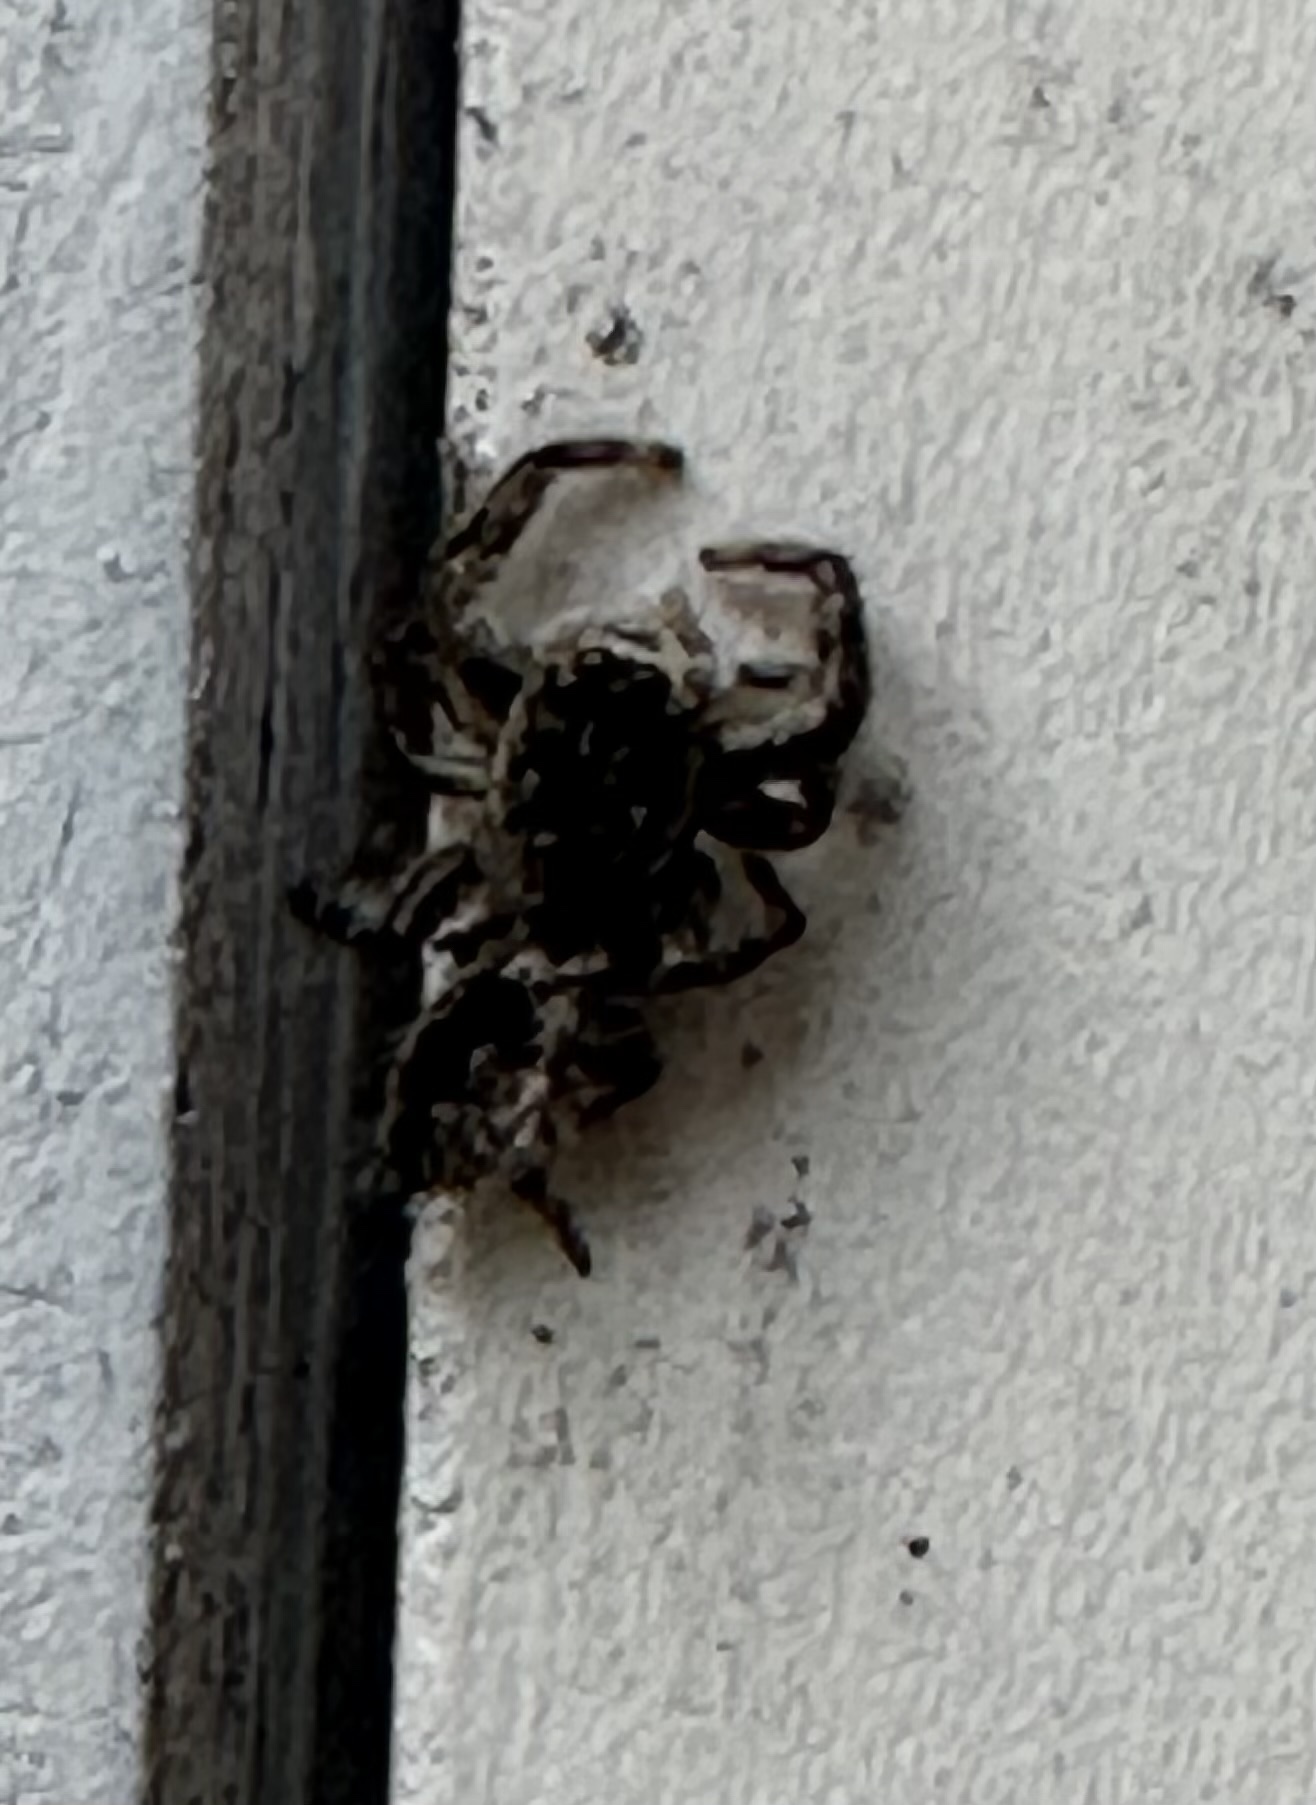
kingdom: Animalia
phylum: Arthropoda
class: Arachnida
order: Araneae
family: Salticidae
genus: Platycryptus
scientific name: Platycryptus undatus
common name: Tan jumping spider
